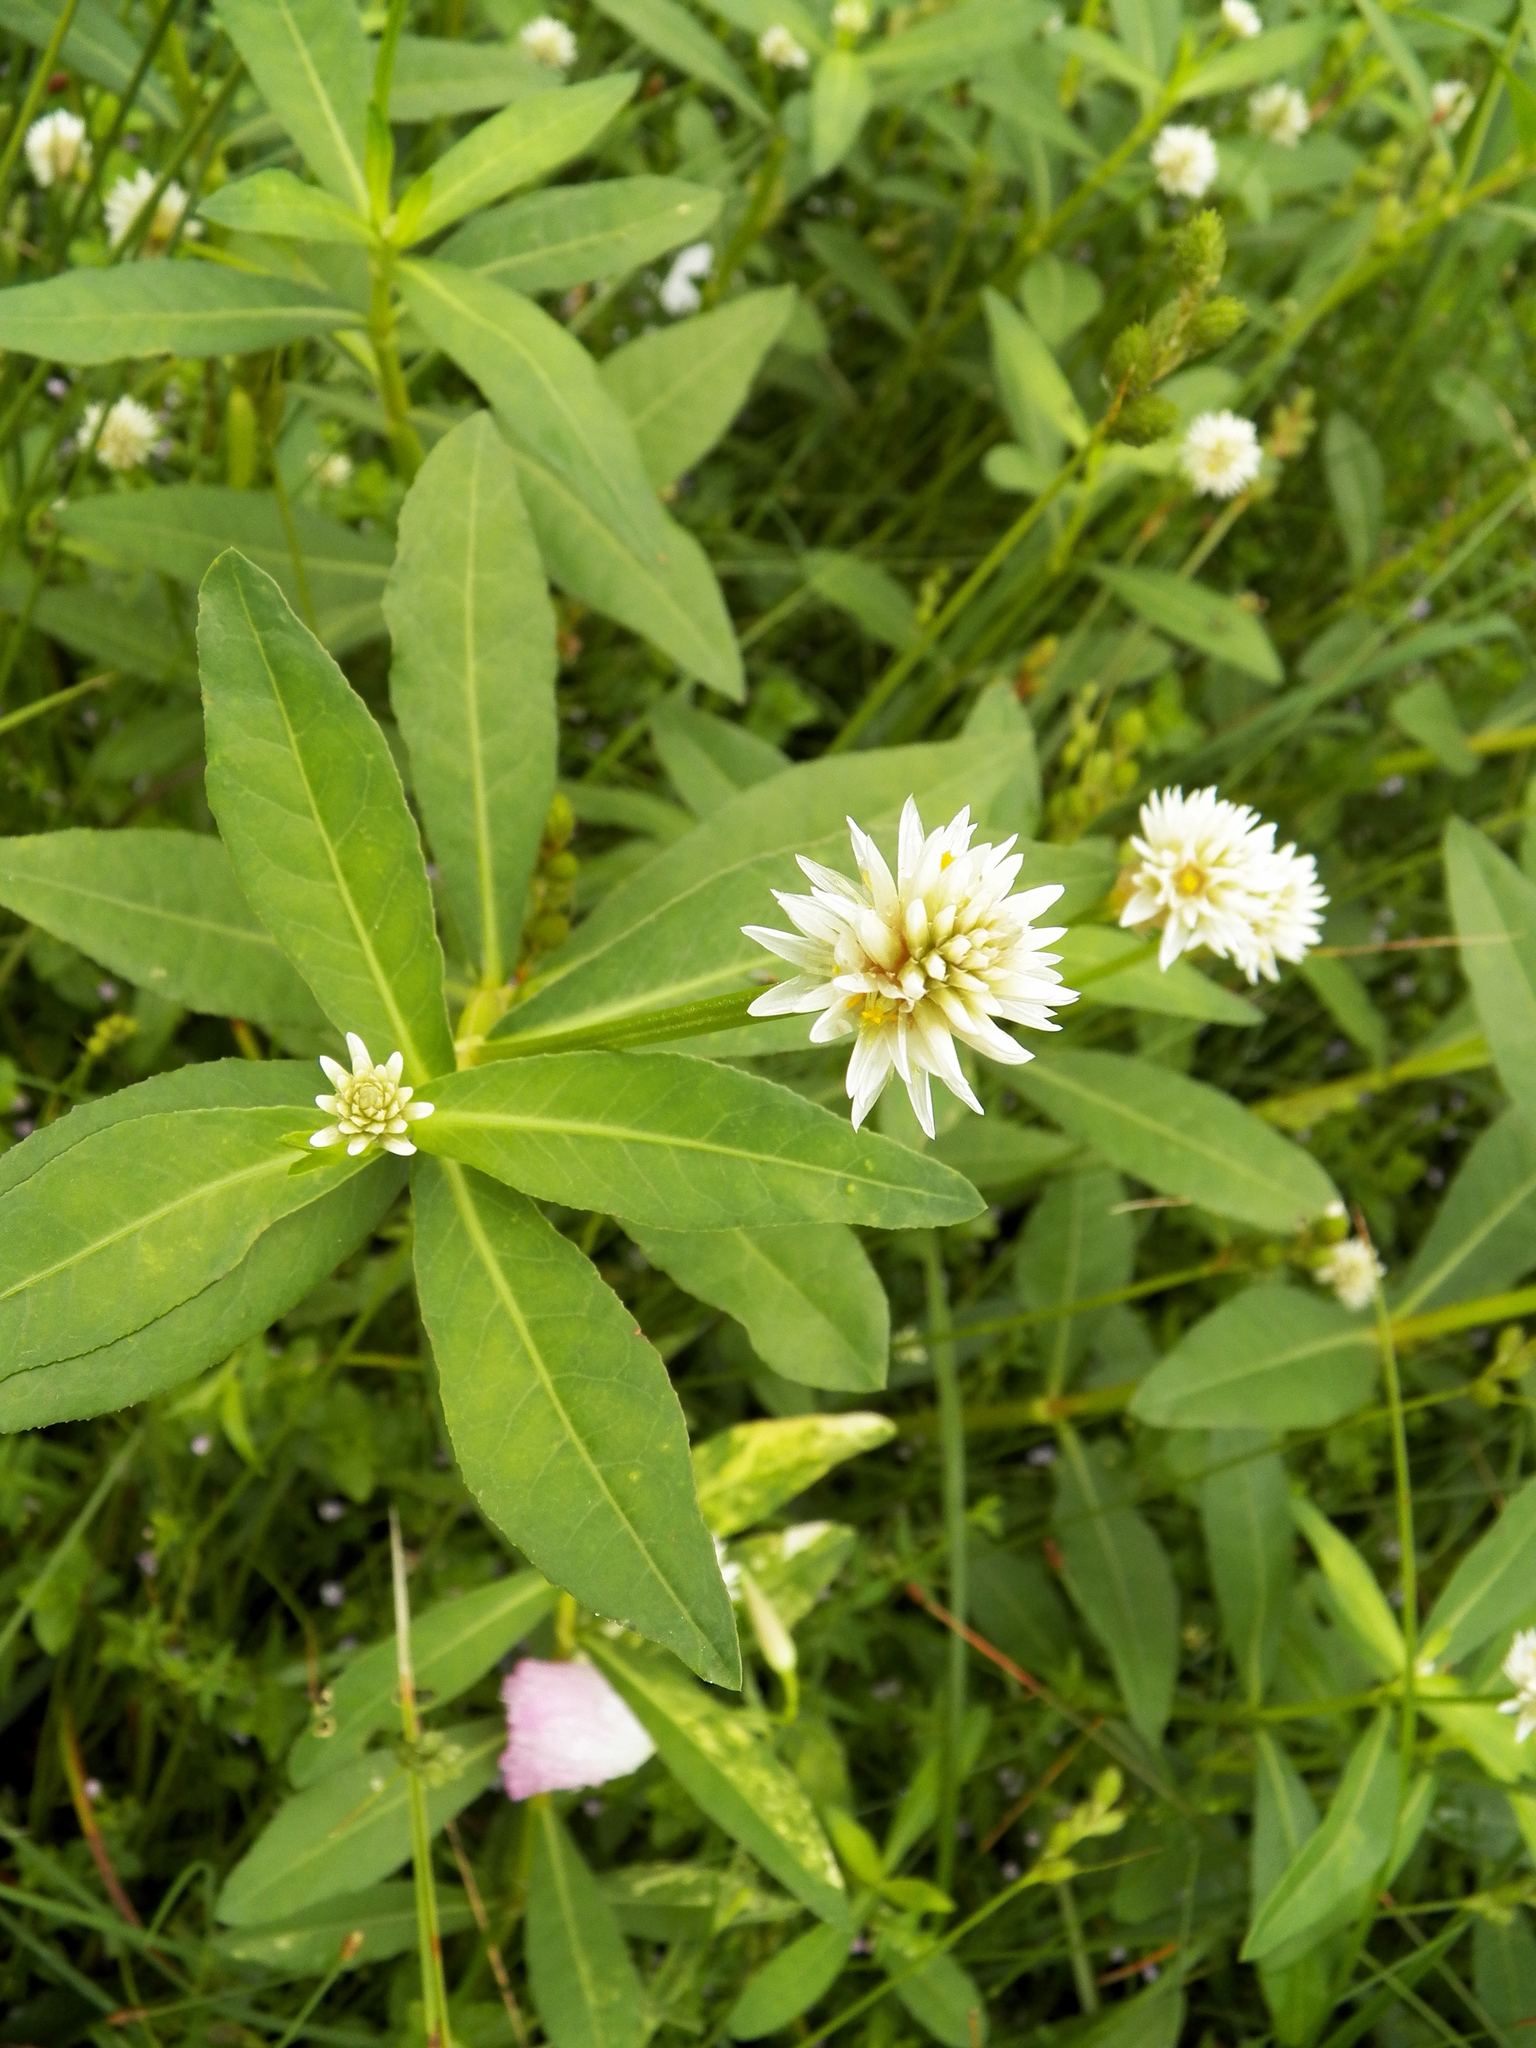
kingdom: Plantae
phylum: Tracheophyta
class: Magnoliopsida
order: Caryophyllales
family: Amaranthaceae
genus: Alternanthera
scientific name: Alternanthera philoxeroides
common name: Alligatorweed
